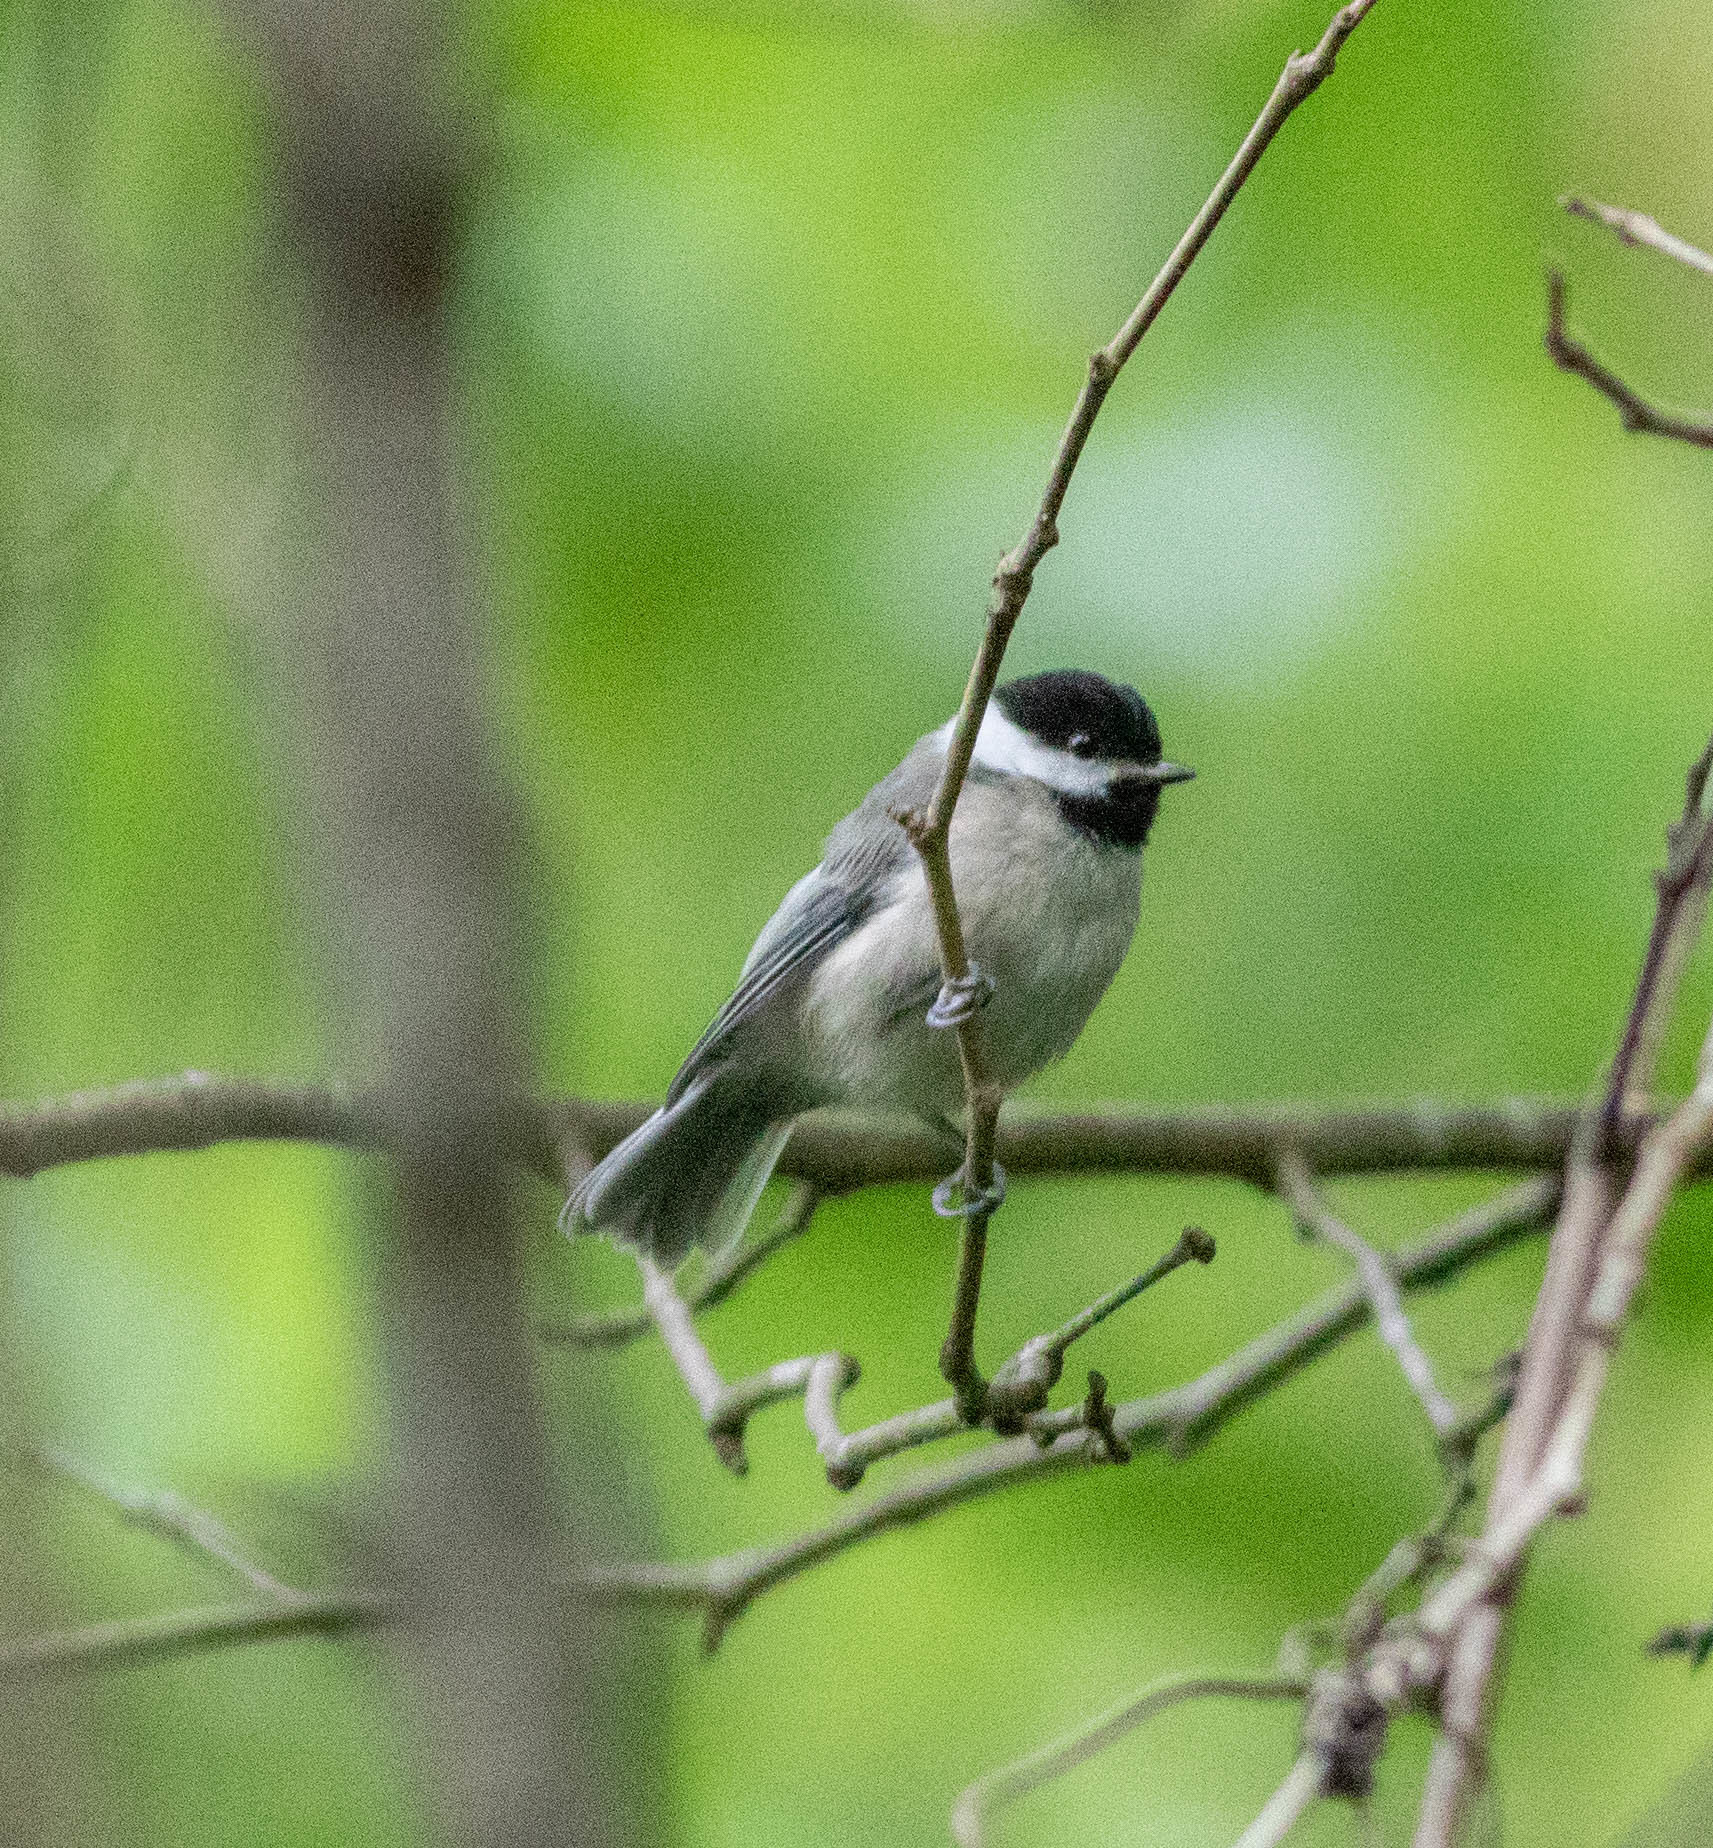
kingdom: Animalia
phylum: Chordata
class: Aves
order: Passeriformes
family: Paridae
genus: Poecile
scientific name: Poecile carolinensis
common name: Carolina chickadee
